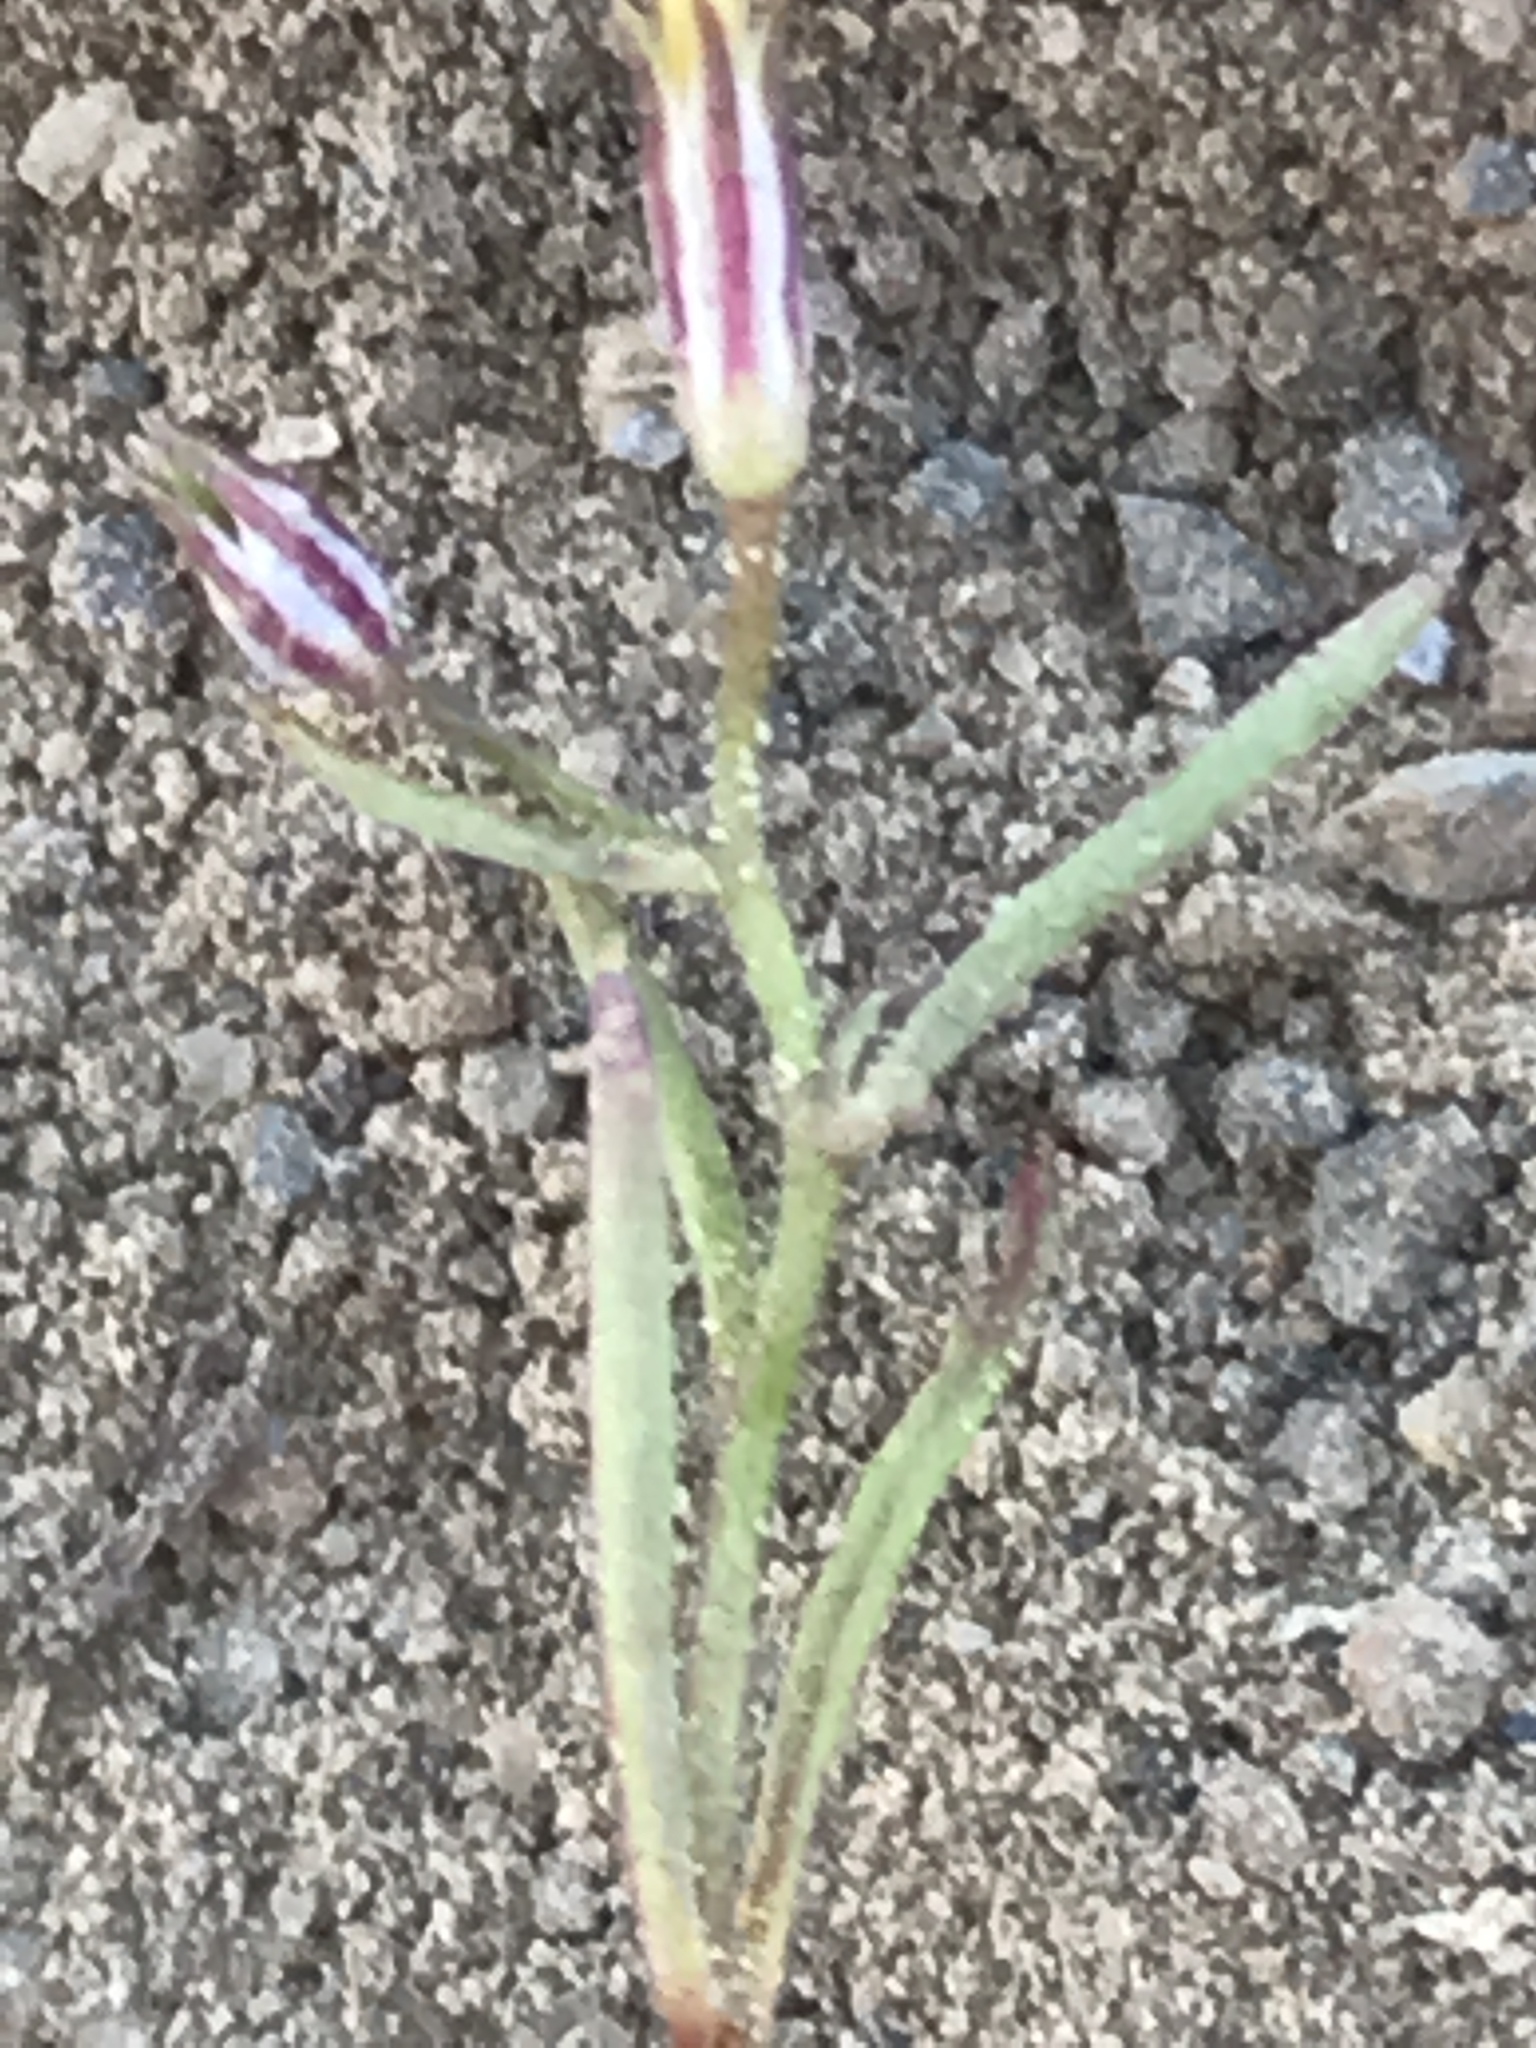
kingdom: Plantae
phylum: Tracheophyta
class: Magnoliopsida
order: Ericales
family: Polemoniaceae
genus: Navarretia
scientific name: Navarretia leptalea
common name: Bridges' pincushionplant
